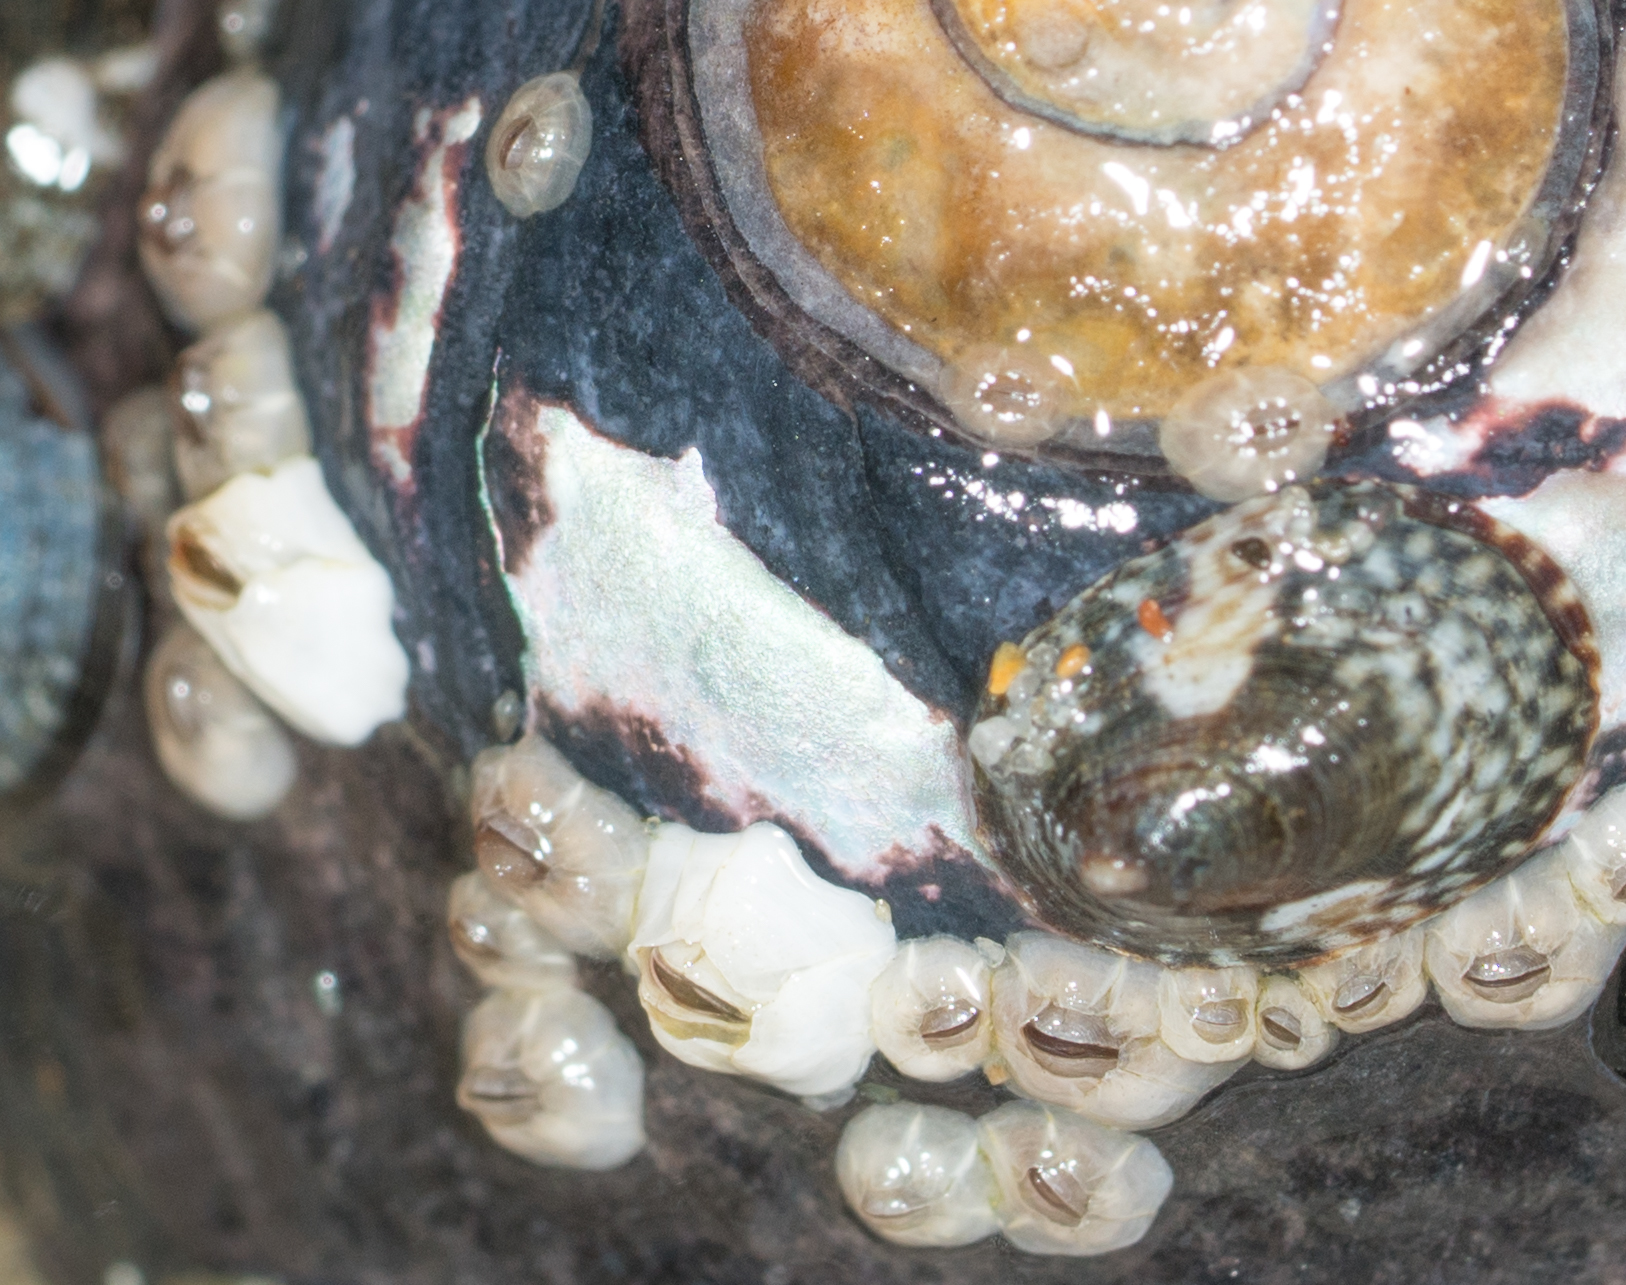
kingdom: Animalia
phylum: Arthropoda
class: Maxillopoda
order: Sessilia
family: Chthamalidae
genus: Chthamalus
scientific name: Chthamalus dalli
